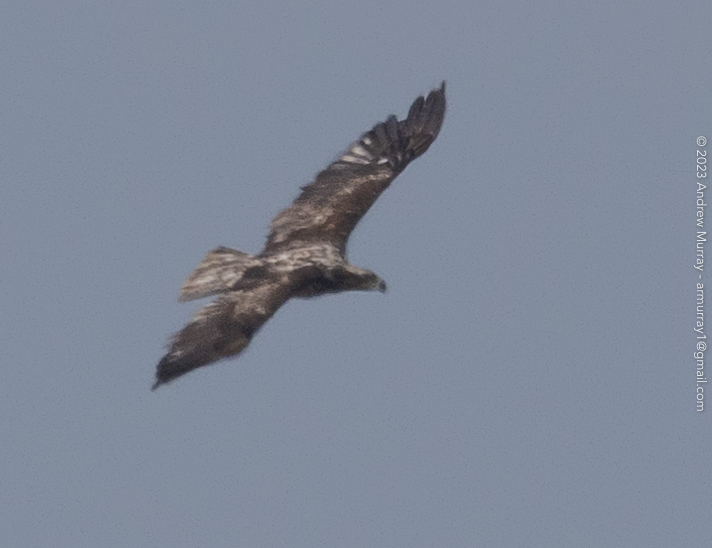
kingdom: Animalia
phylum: Chordata
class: Aves
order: Accipitriformes
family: Accipitridae
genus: Haliaeetus
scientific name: Haliaeetus leucocephalus
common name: Bald eagle
